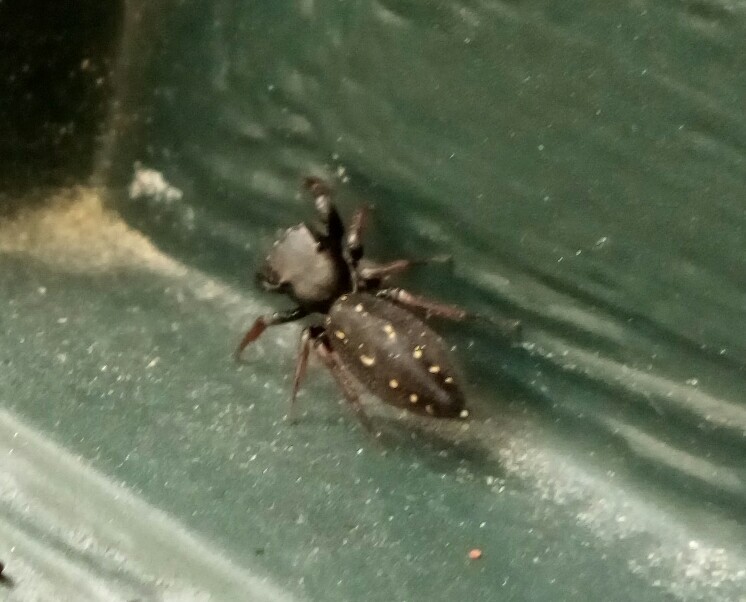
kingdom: Animalia
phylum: Arthropoda
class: Arachnida
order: Araneae
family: Salticidae
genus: Metacyrba
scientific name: Metacyrba taeniola
